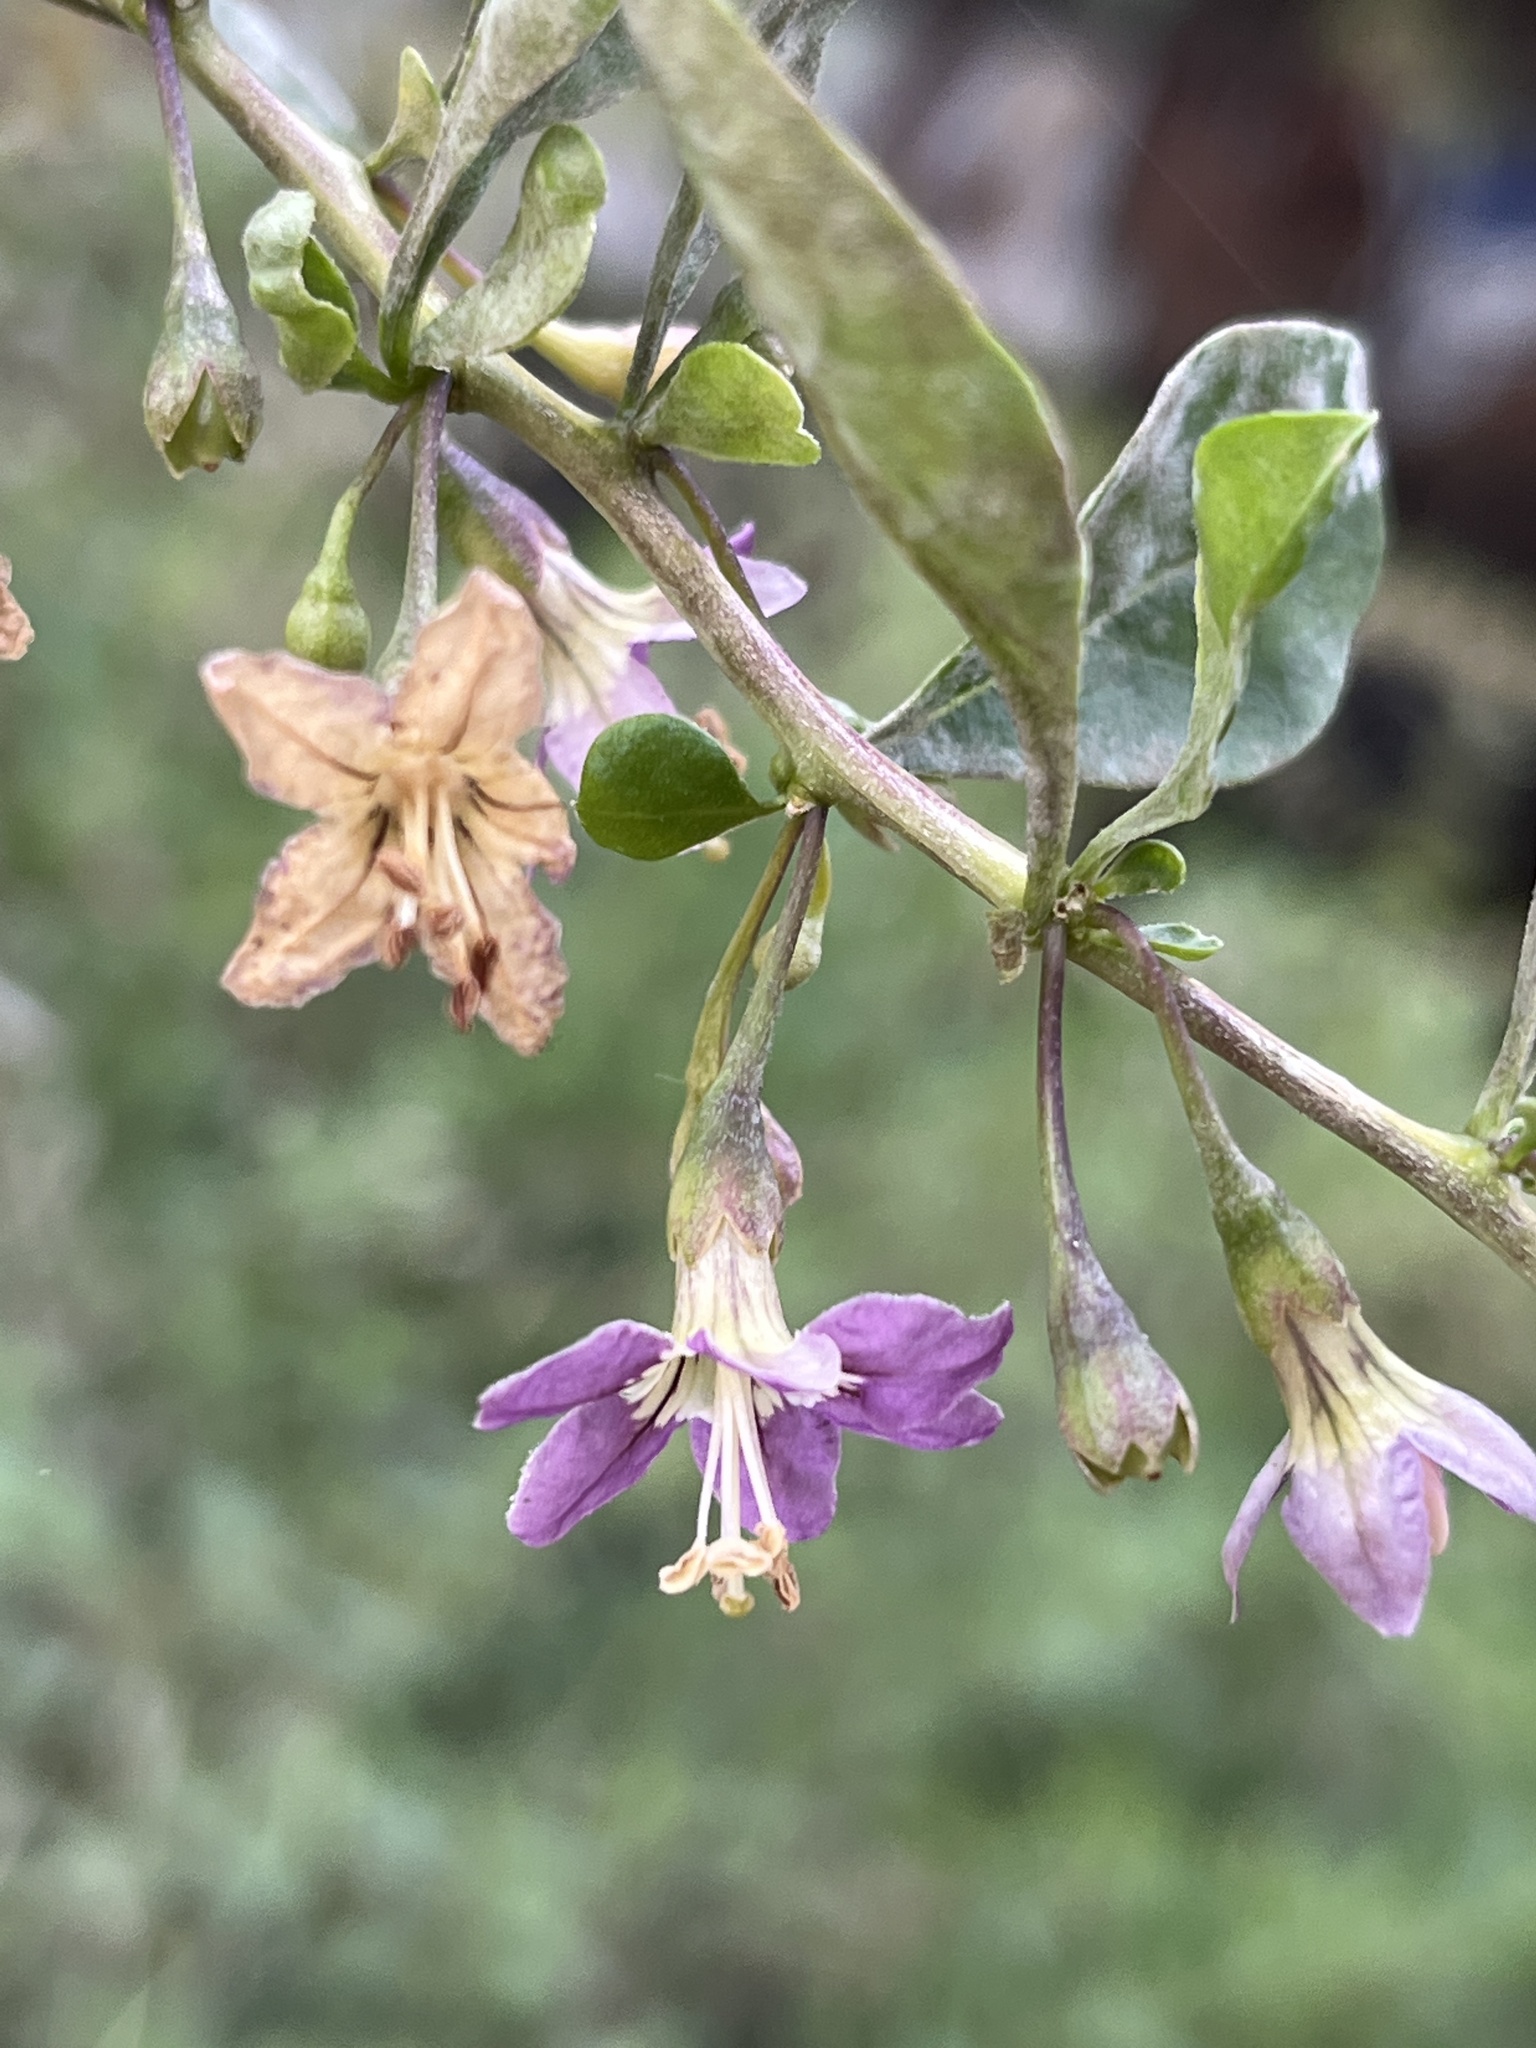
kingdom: Plantae
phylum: Tracheophyta
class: Magnoliopsida
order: Solanales
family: Solanaceae
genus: Lycium
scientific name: Lycium barbarum
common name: Duke of argyll's teaplant
